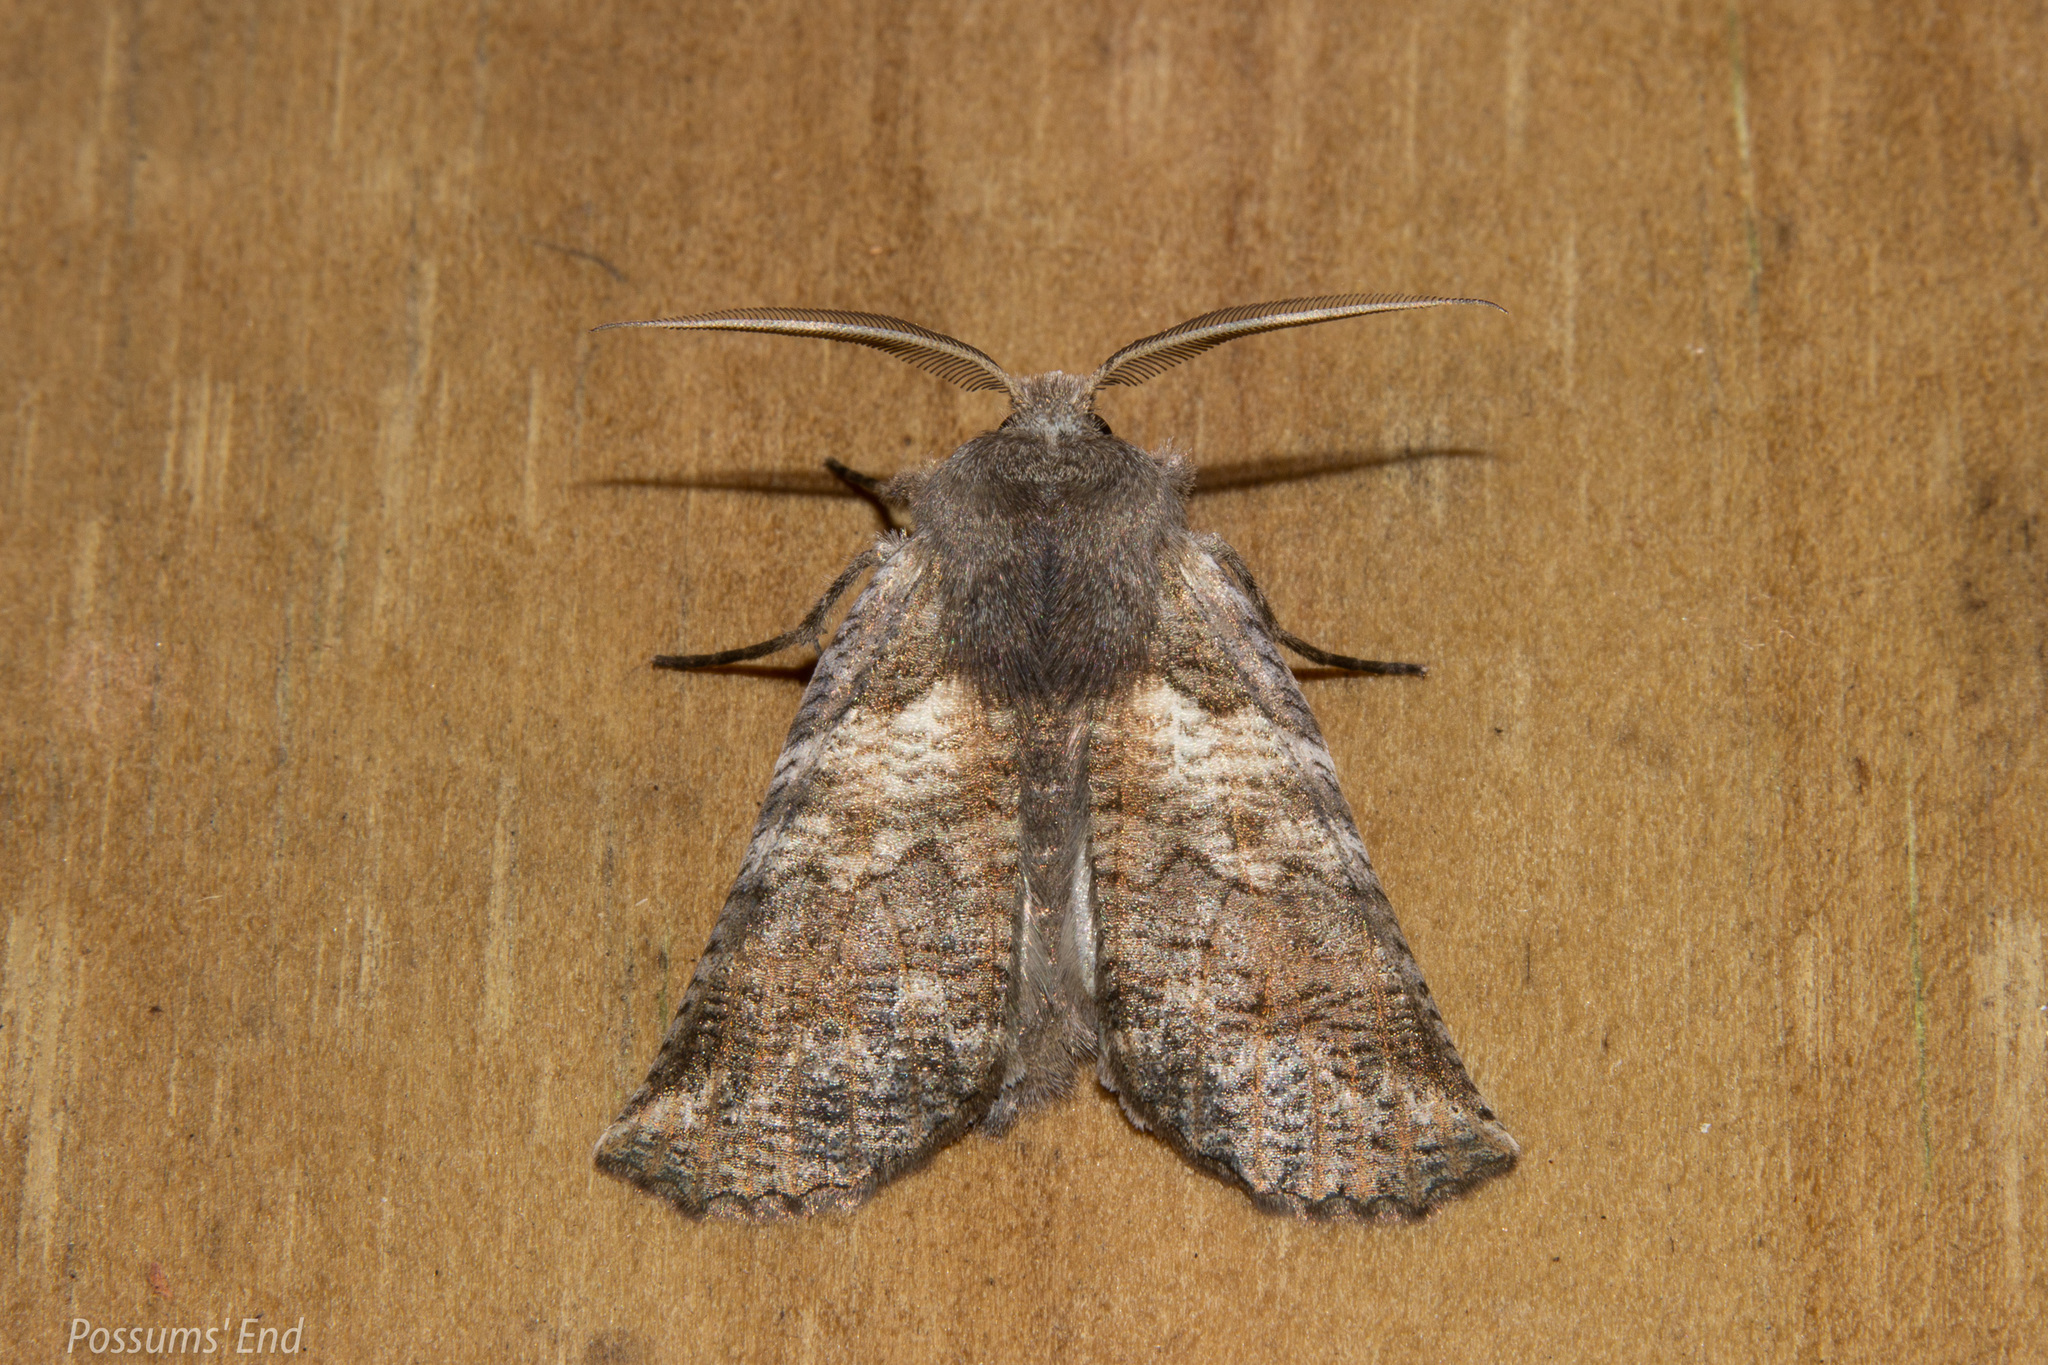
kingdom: Animalia
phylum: Arthropoda
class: Insecta
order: Lepidoptera
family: Geometridae
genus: Declana
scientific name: Declana
